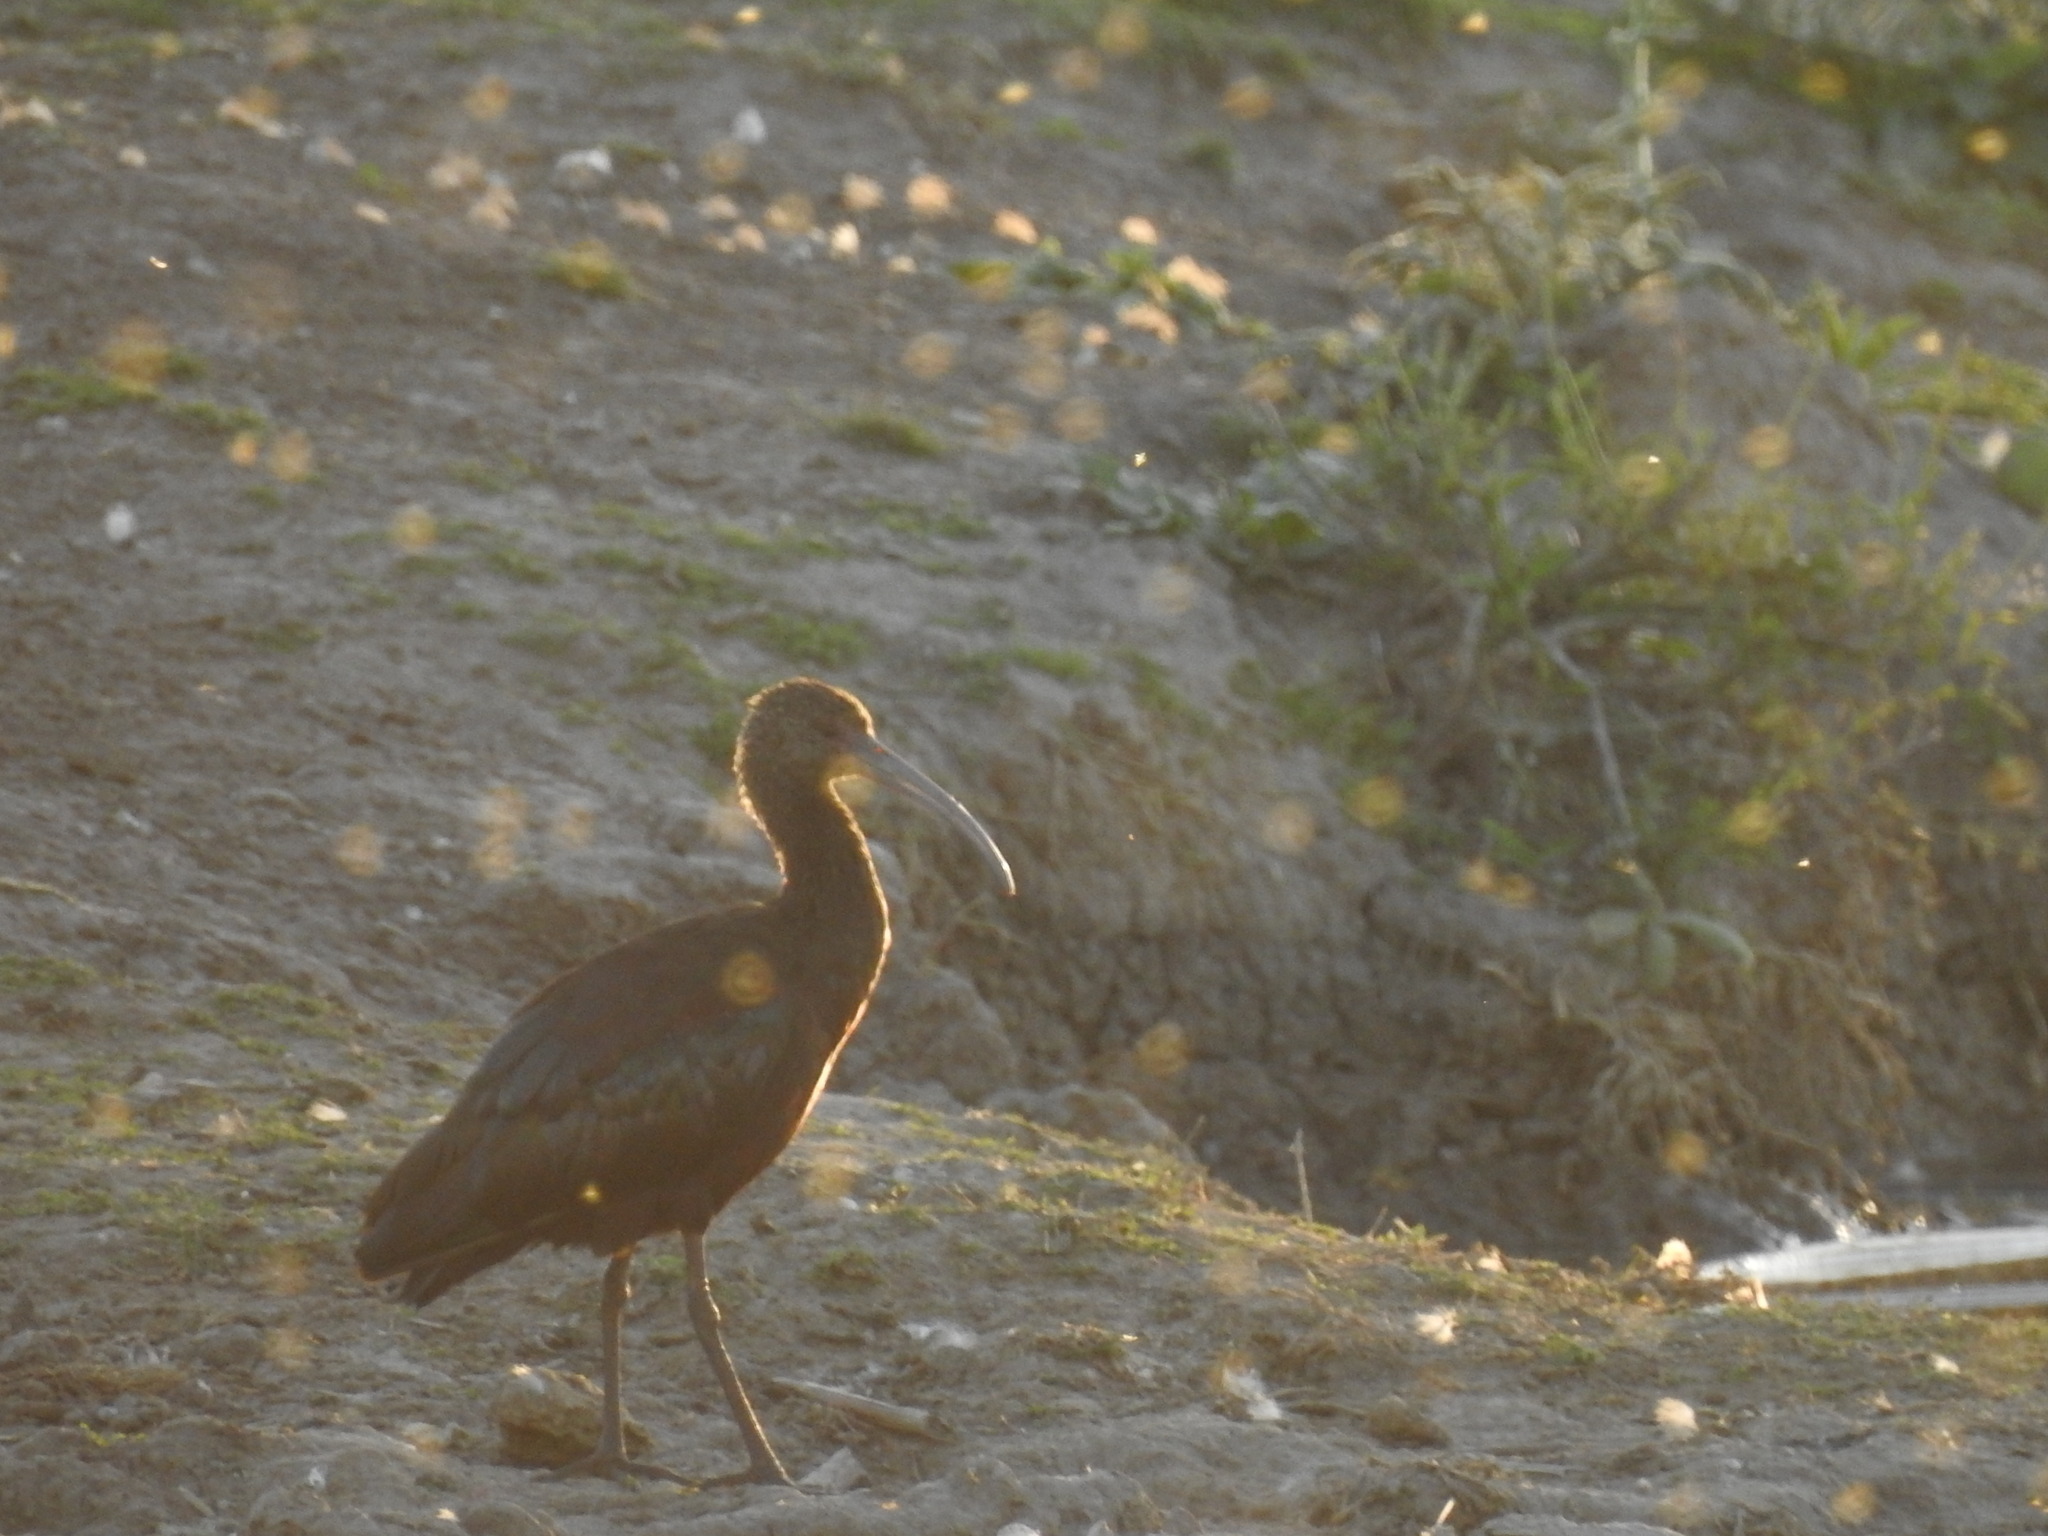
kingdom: Animalia
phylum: Chordata
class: Aves
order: Pelecaniformes
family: Threskiornithidae
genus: Plegadis
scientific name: Plegadis chihi
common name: White-faced ibis
